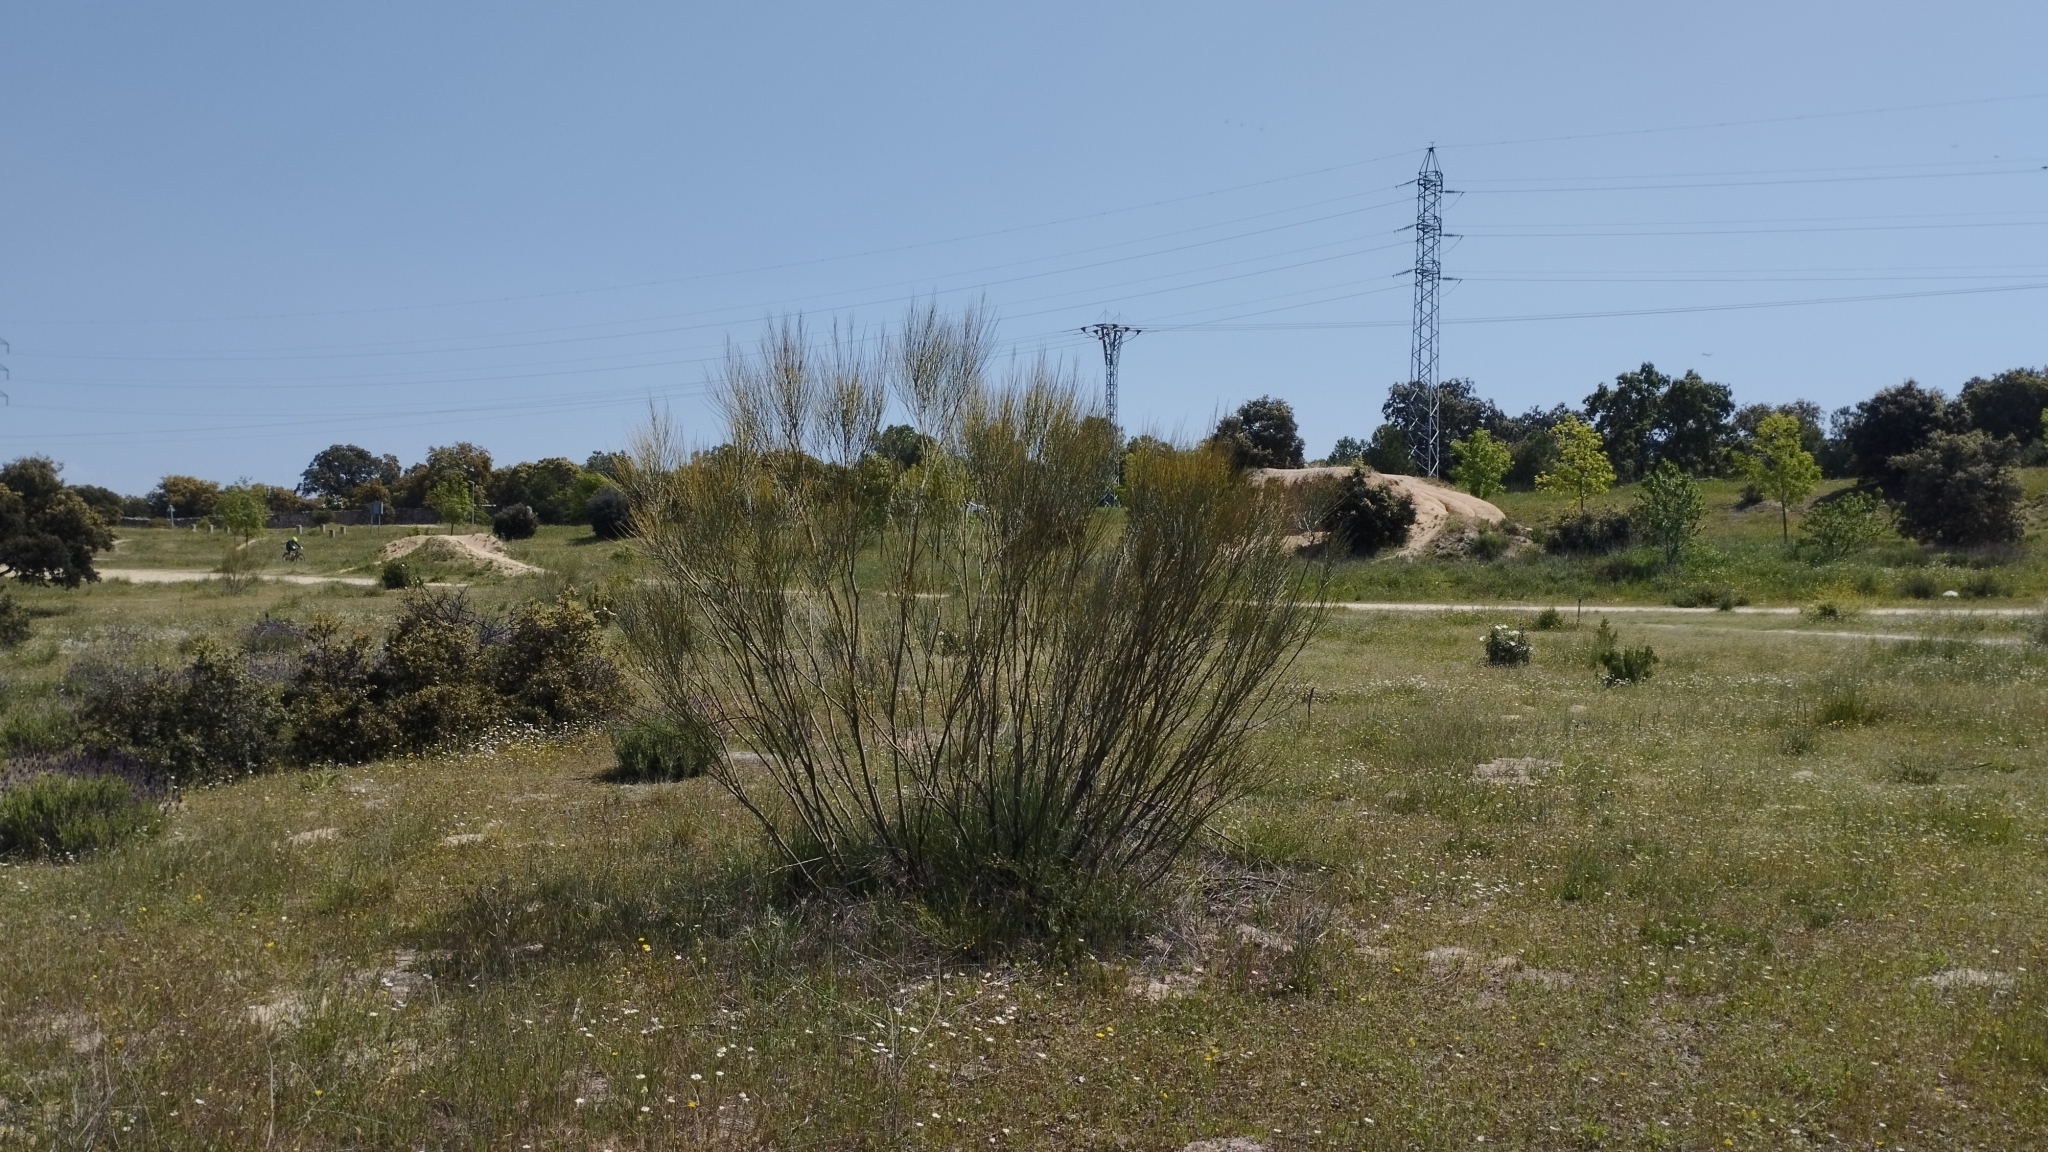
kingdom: Plantae
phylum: Tracheophyta
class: Magnoliopsida
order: Fabales
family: Fabaceae
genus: Retama
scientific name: Retama sphaerocarpa
